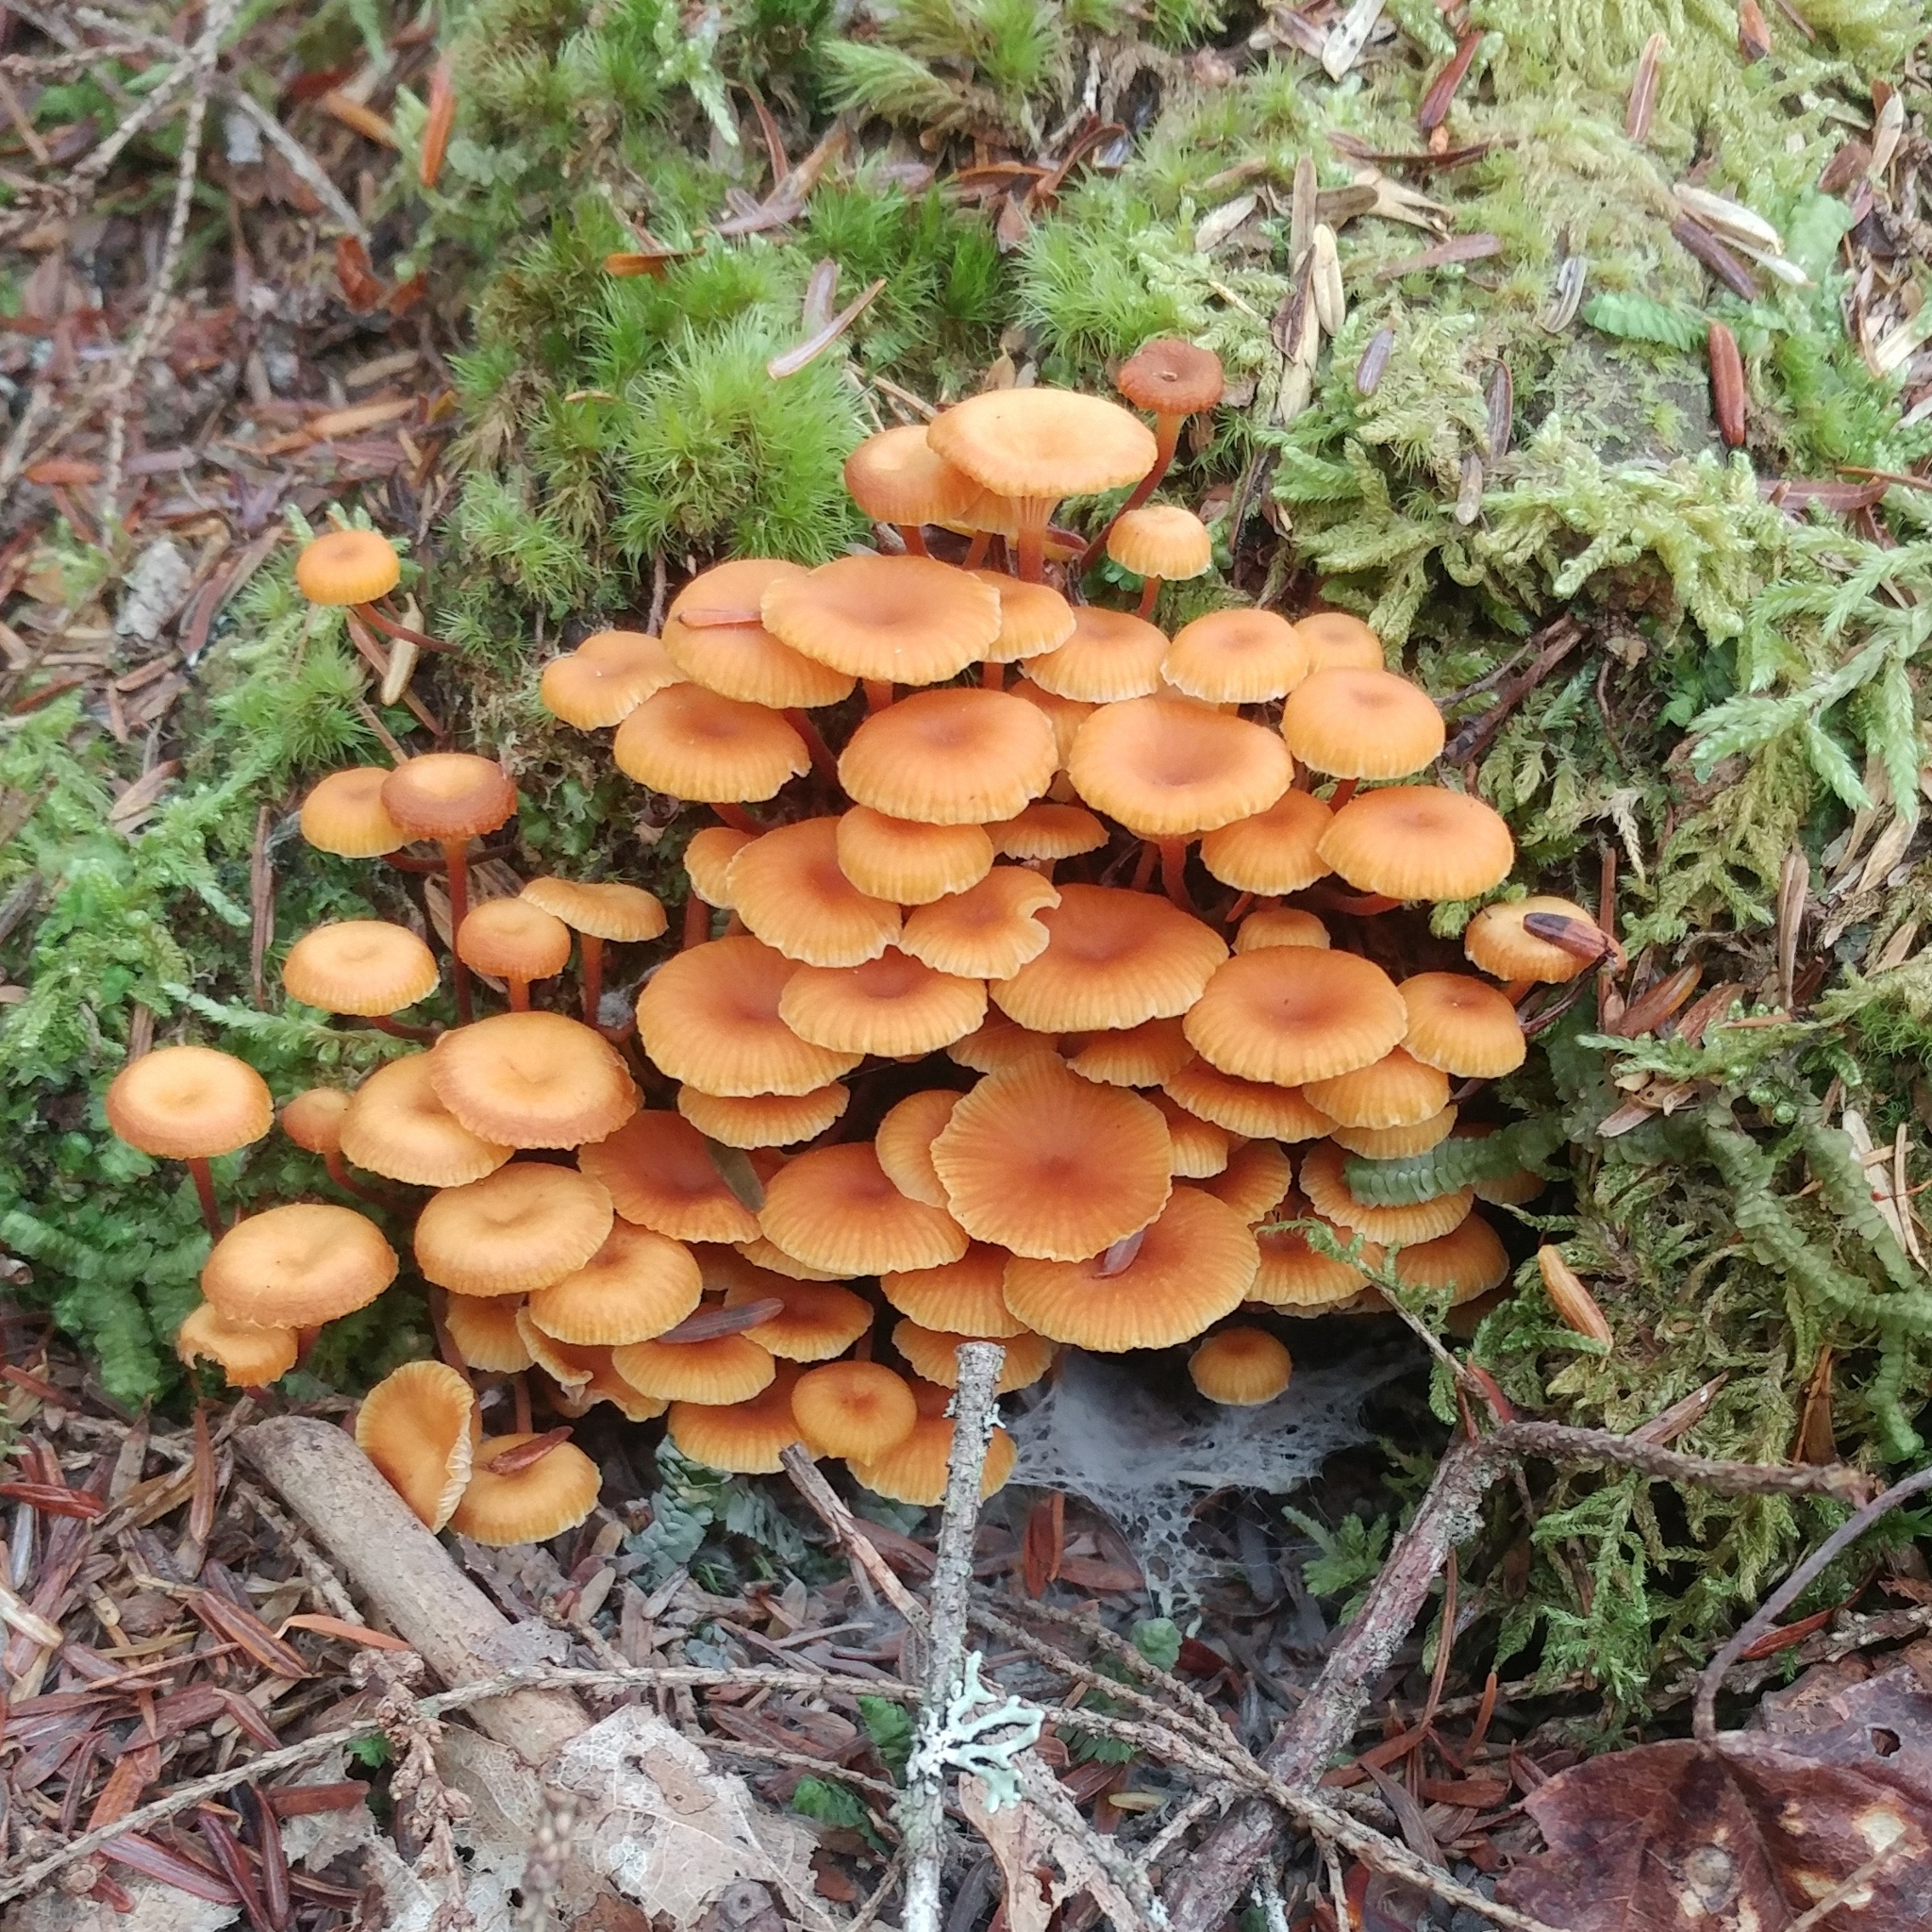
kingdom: Fungi
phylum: Basidiomycota
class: Agaricomycetes
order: Agaricales
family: Mycenaceae
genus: Xeromphalina
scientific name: Xeromphalina campanella
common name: Pinewood gingertail
